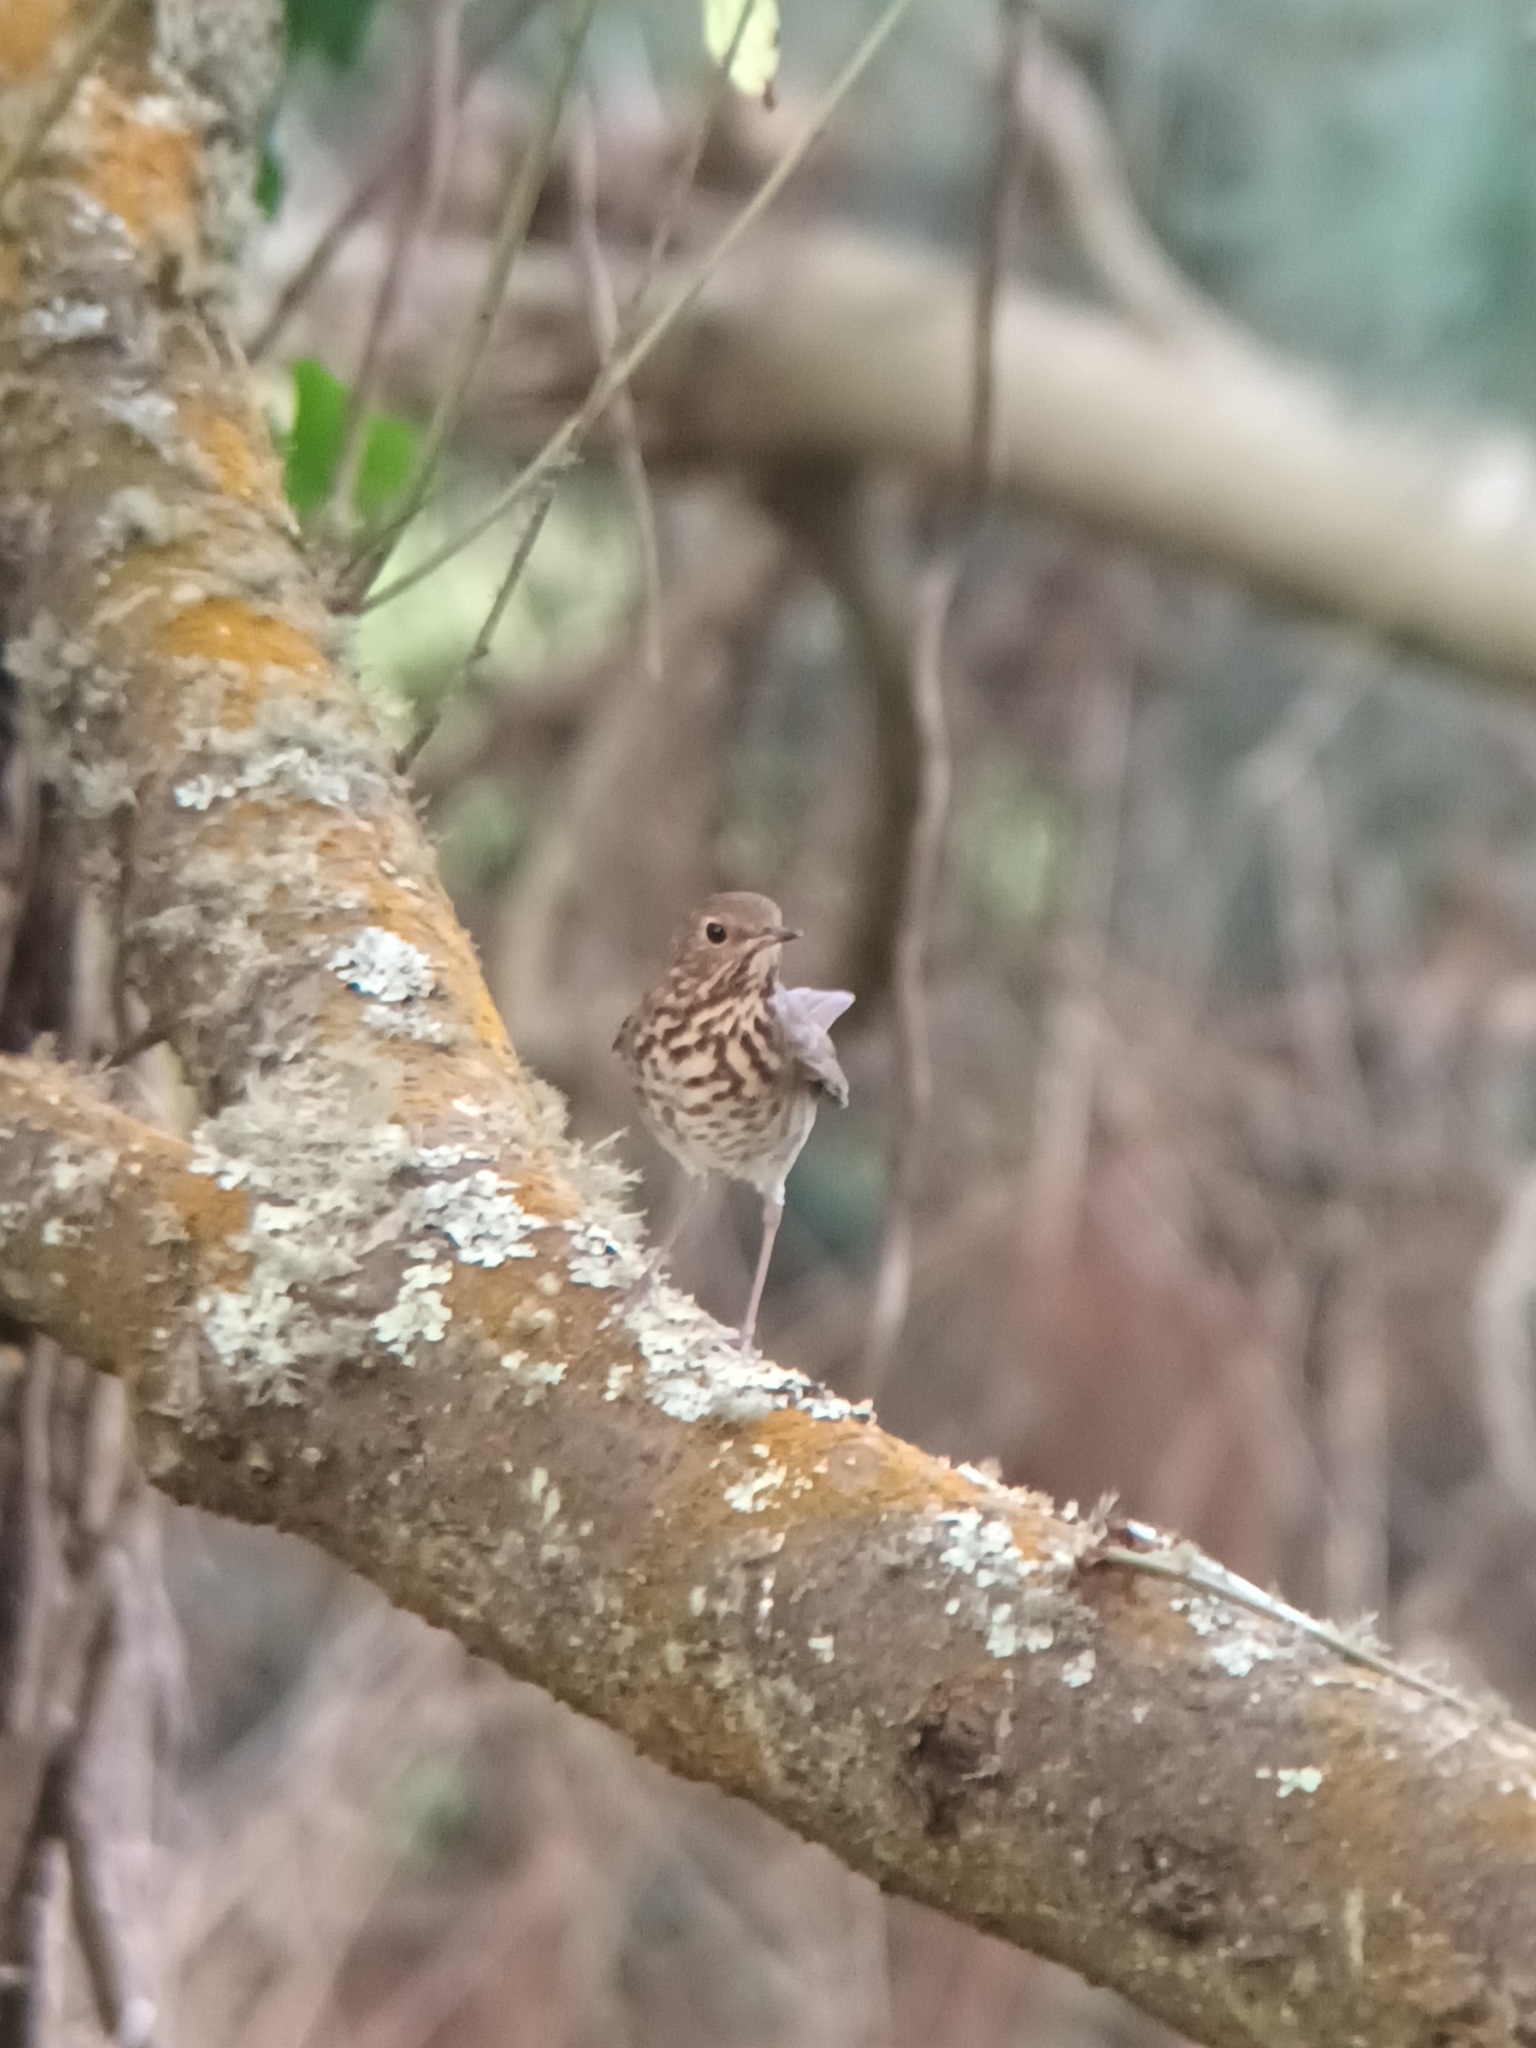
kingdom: Animalia
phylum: Chordata
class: Aves
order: Passeriformes
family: Turdidae
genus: Catharus
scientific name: Catharus guttatus
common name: Hermit thrush
